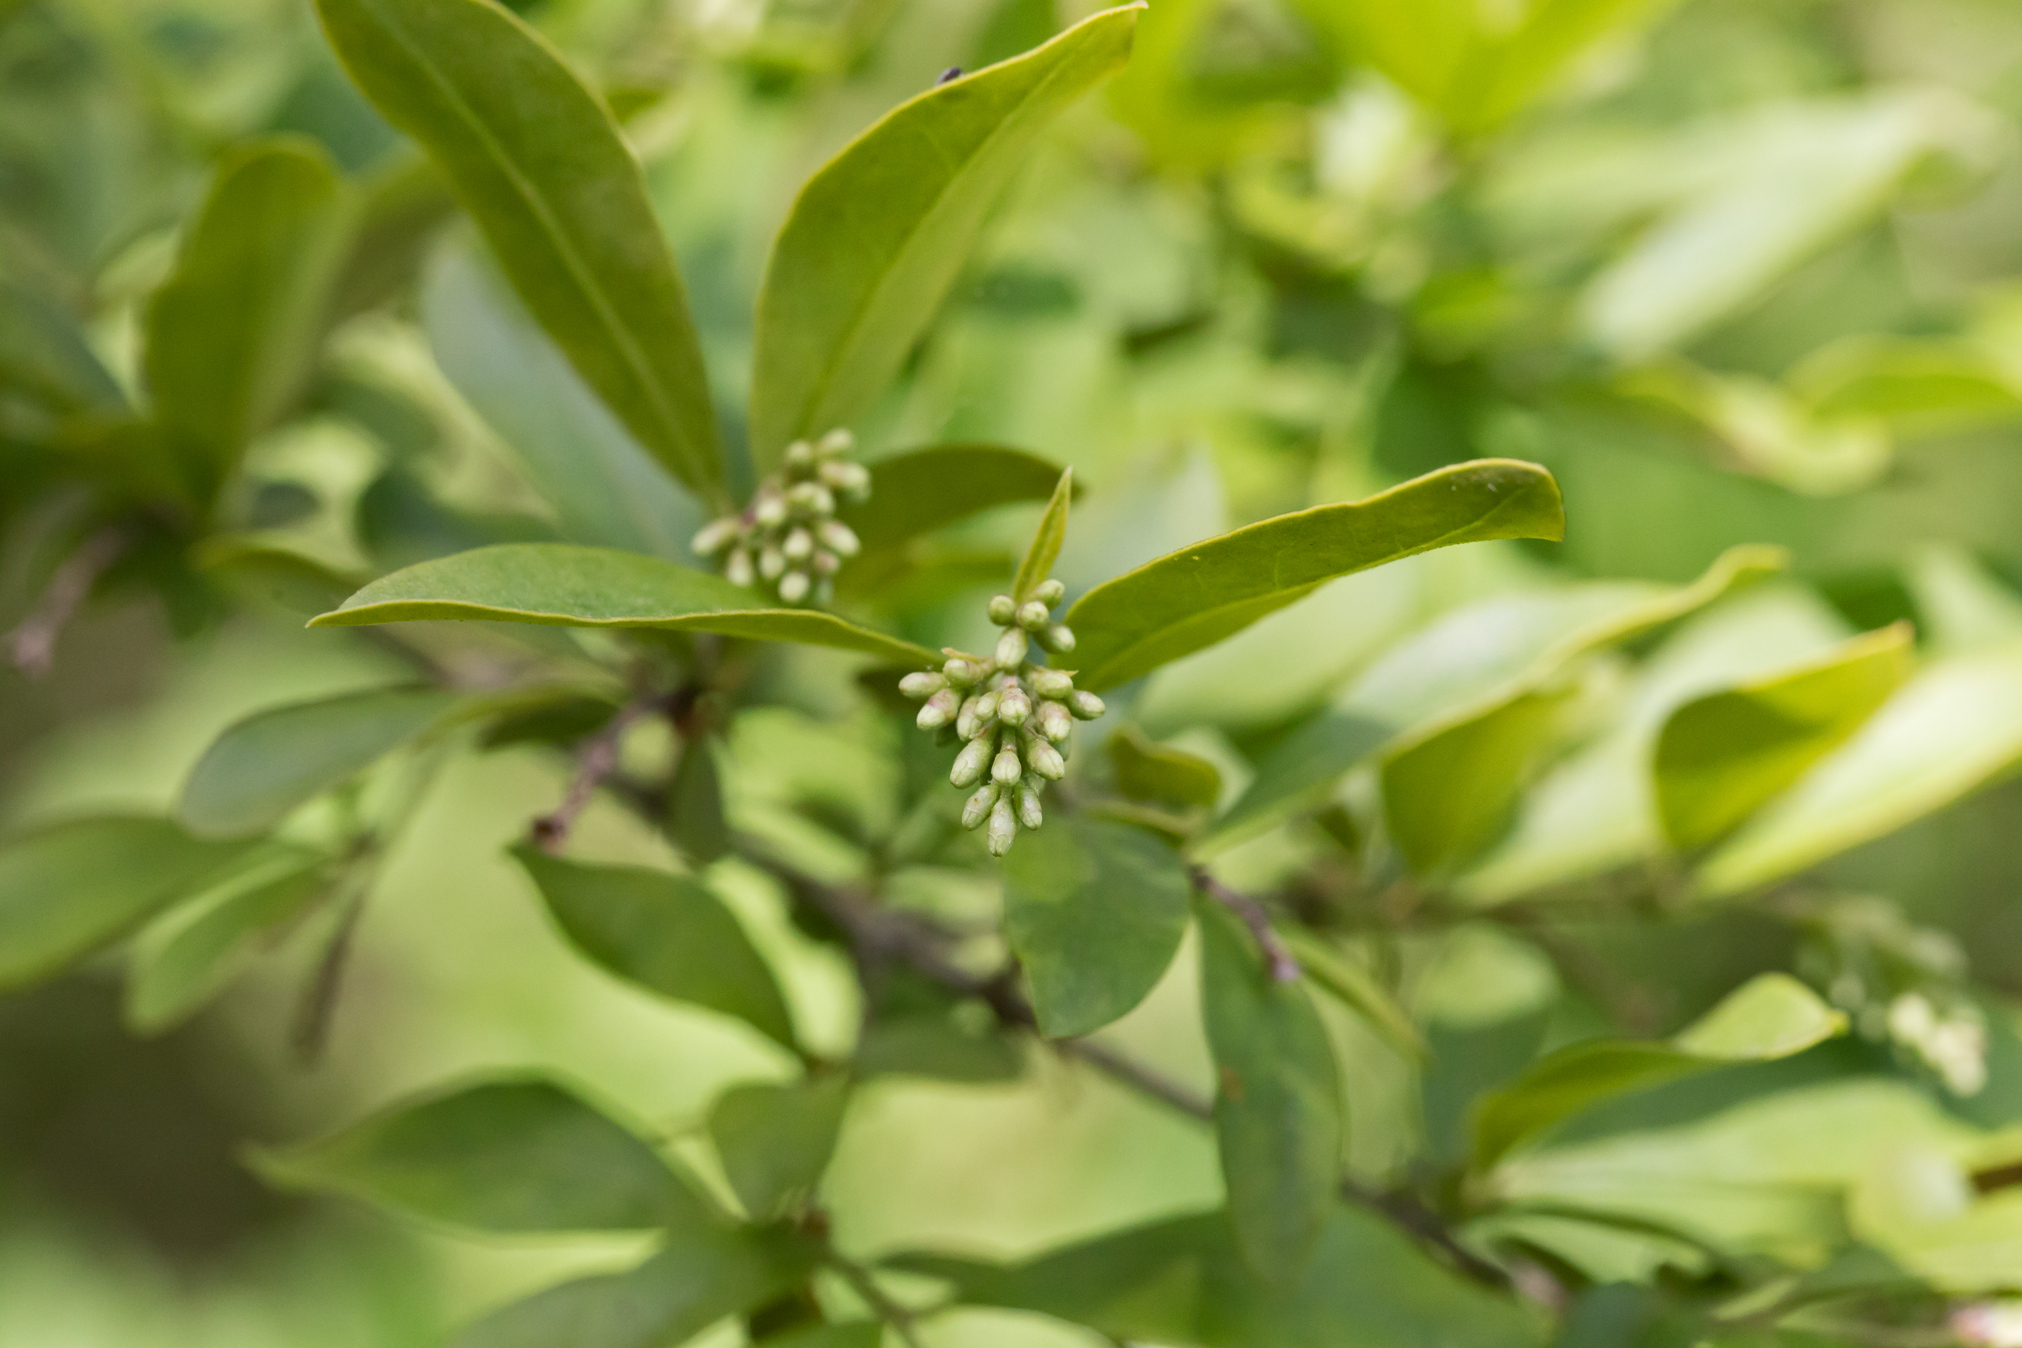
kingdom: Plantae
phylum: Tracheophyta
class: Magnoliopsida
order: Lamiales
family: Oleaceae
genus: Ligustrum
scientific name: Ligustrum obtusifolium
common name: Border privet
